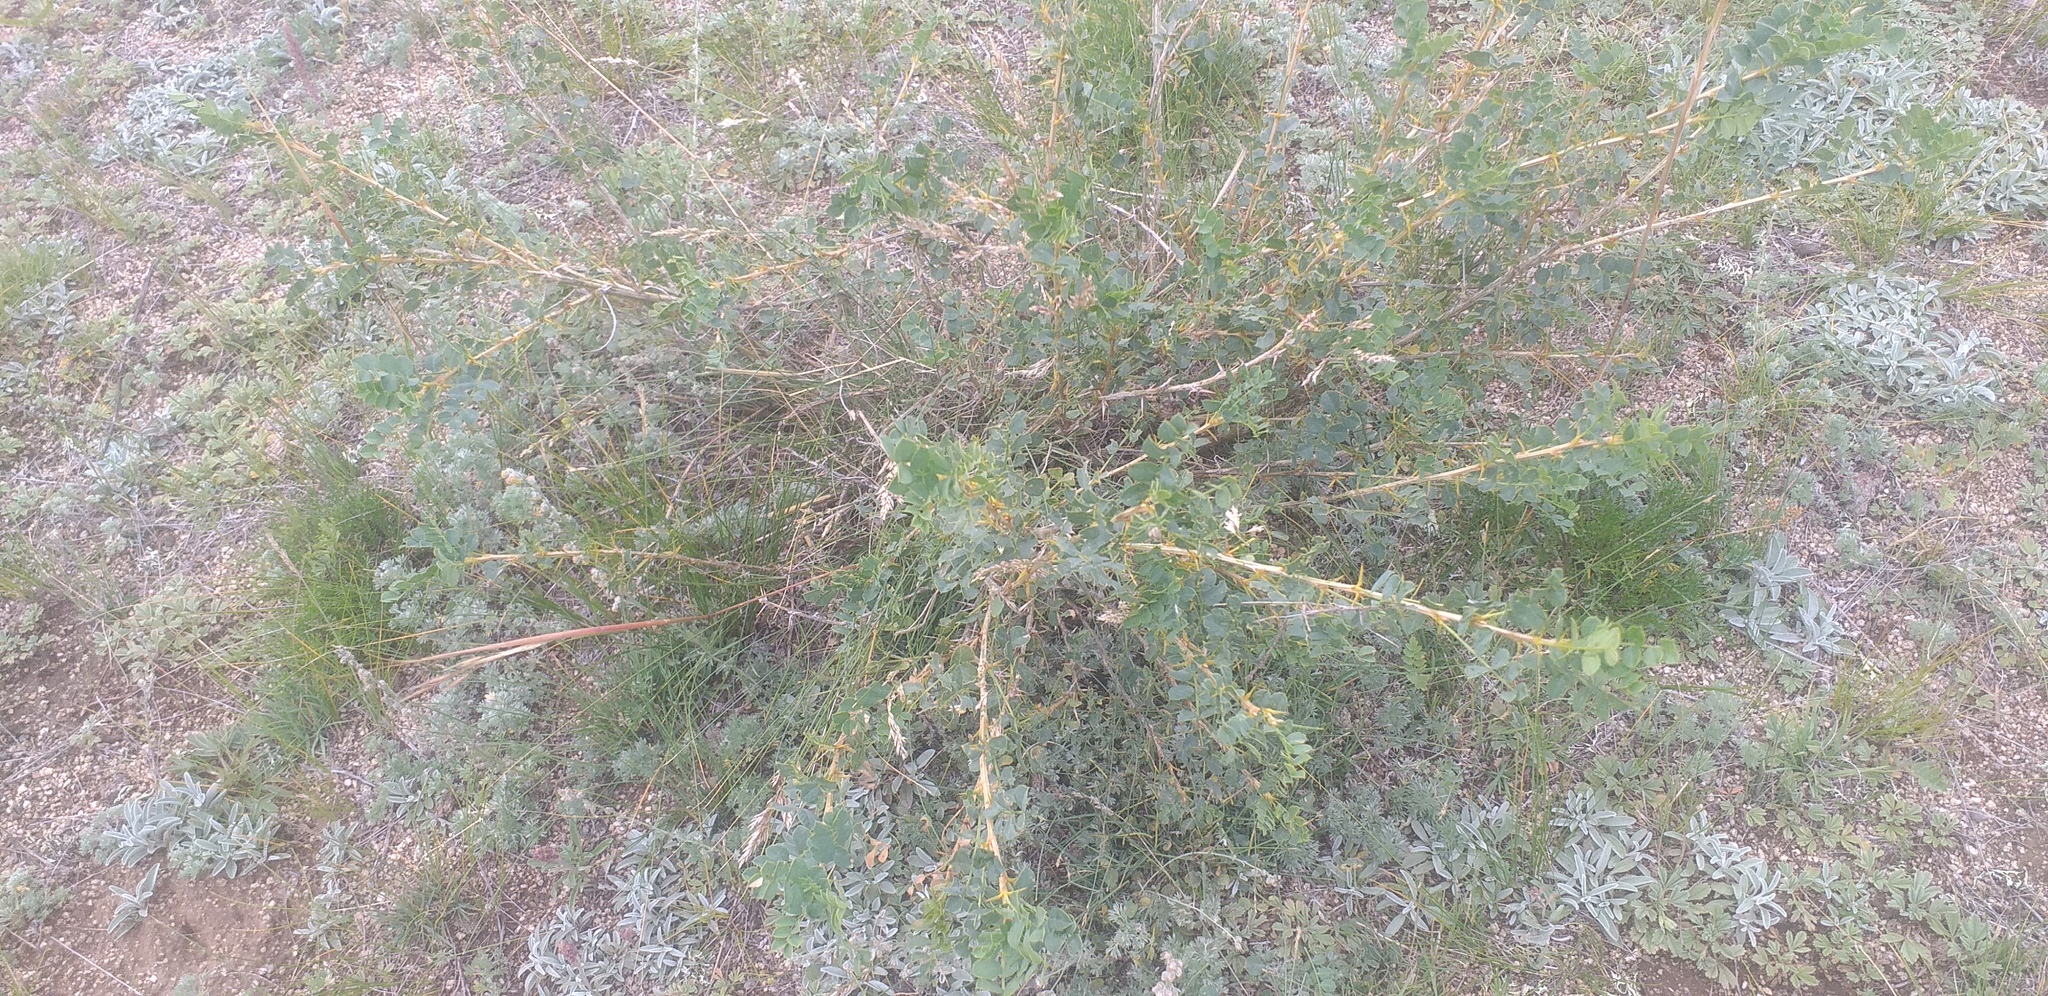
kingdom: Plantae
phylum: Tracheophyta
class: Magnoliopsida
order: Fabales
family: Fabaceae
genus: Caragana
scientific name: Caragana microphylla
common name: Littleleaf peashrub
